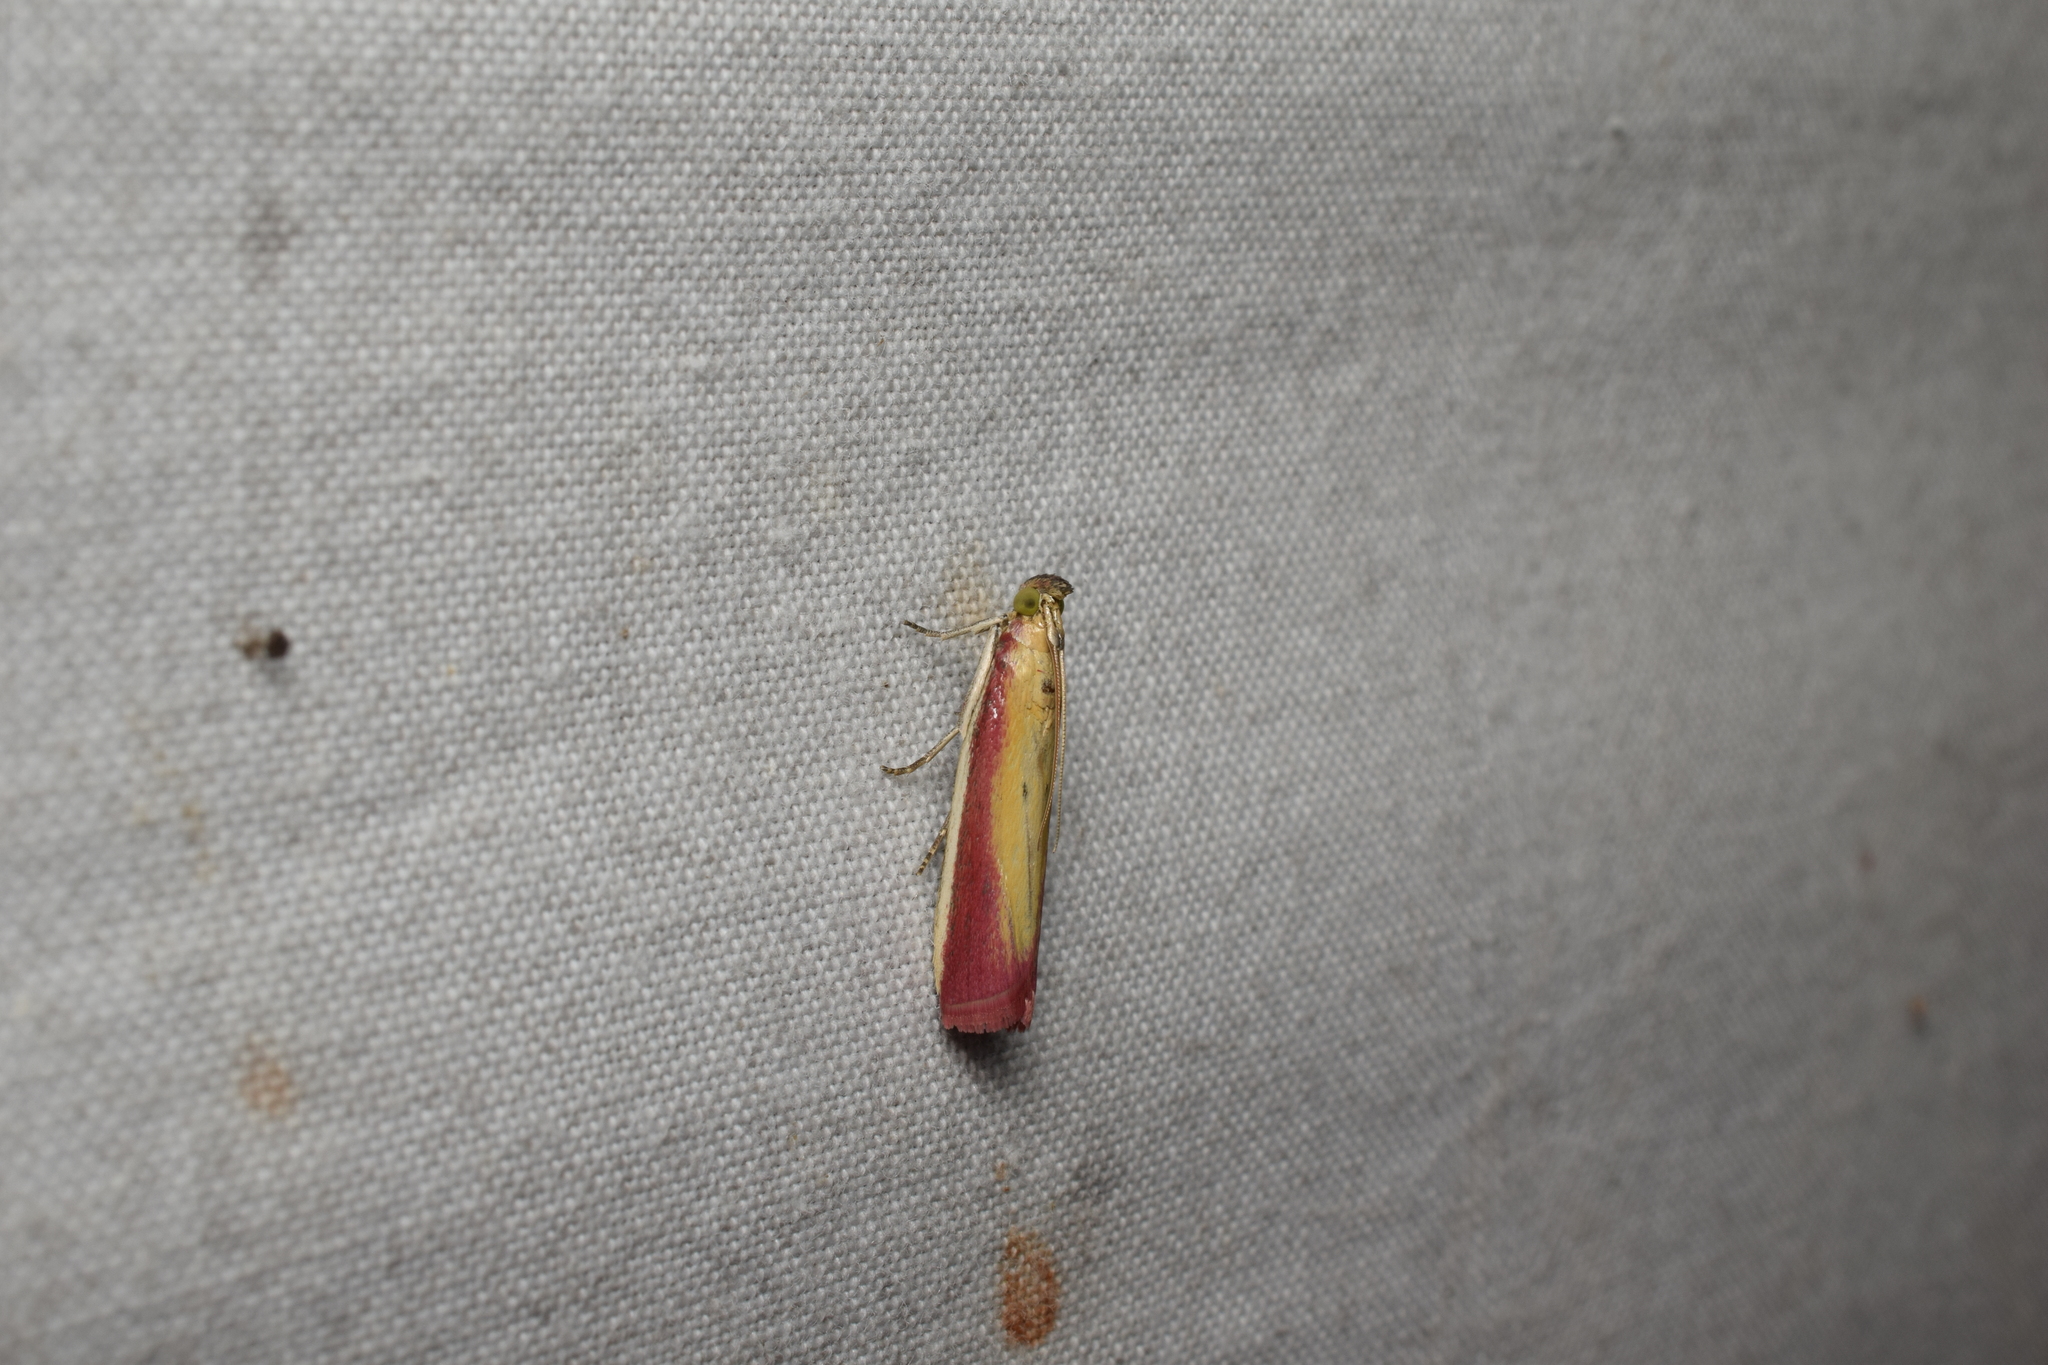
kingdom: Animalia
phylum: Arthropoda
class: Insecta
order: Lepidoptera
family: Pyralidae
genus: Oncocera
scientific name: Oncocera semirubella
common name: Rosy-striped knot-horn
